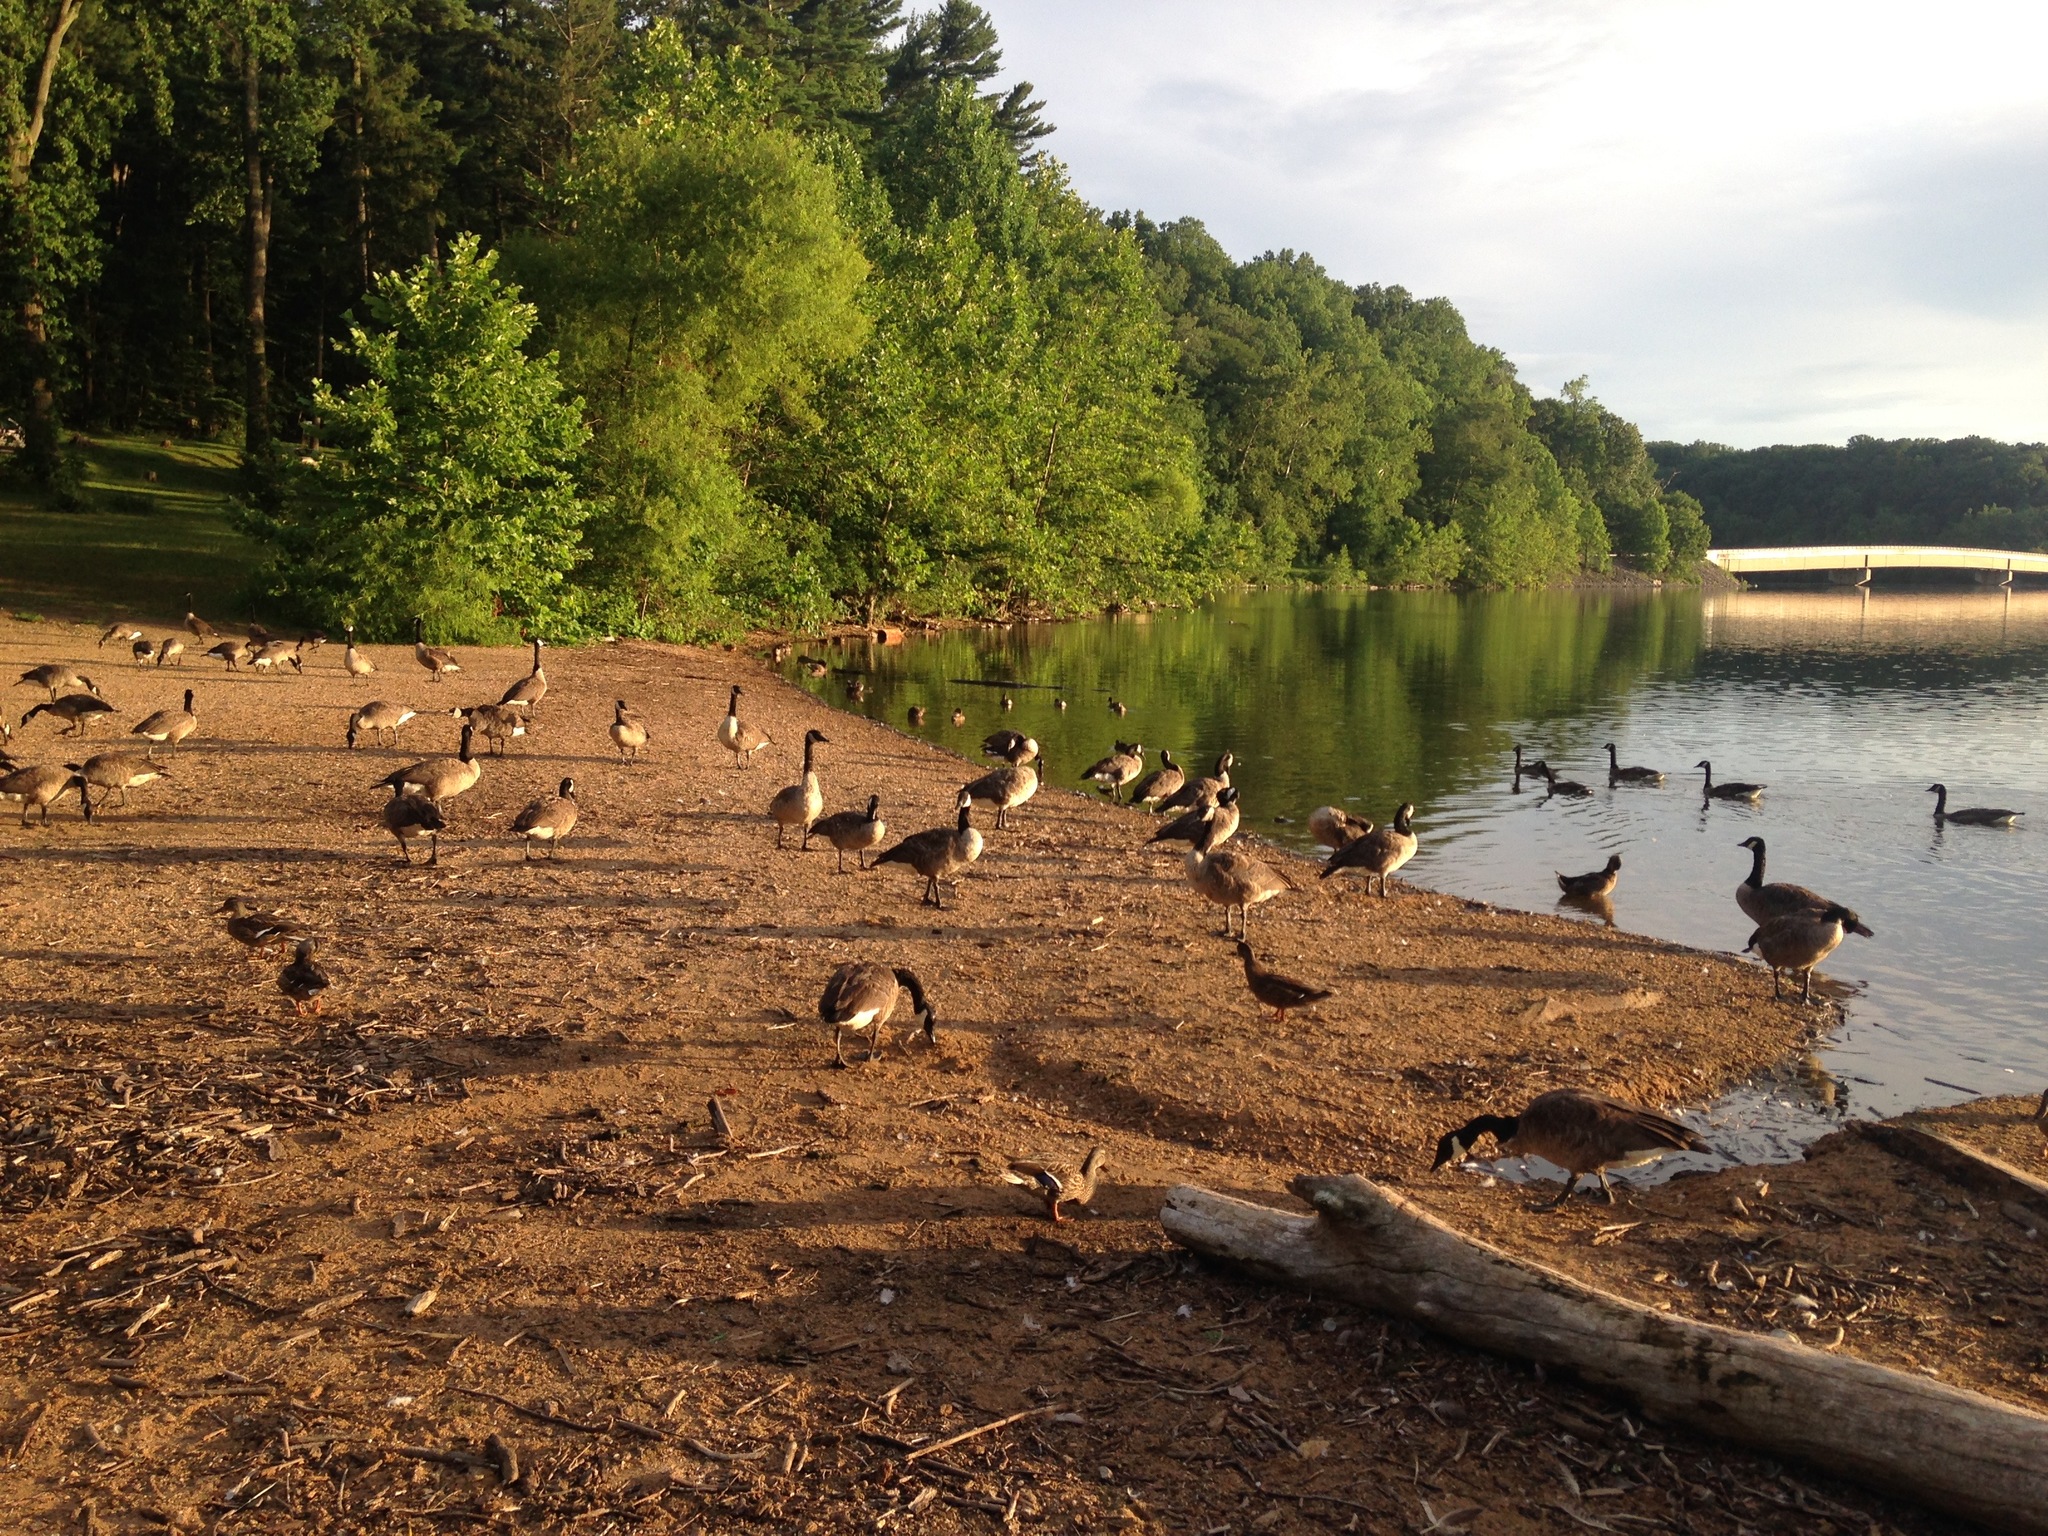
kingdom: Animalia
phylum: Chordata
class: Aves
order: Anseriformes
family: Anatidae
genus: Branta
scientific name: Branta canadensis
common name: Canada goose
